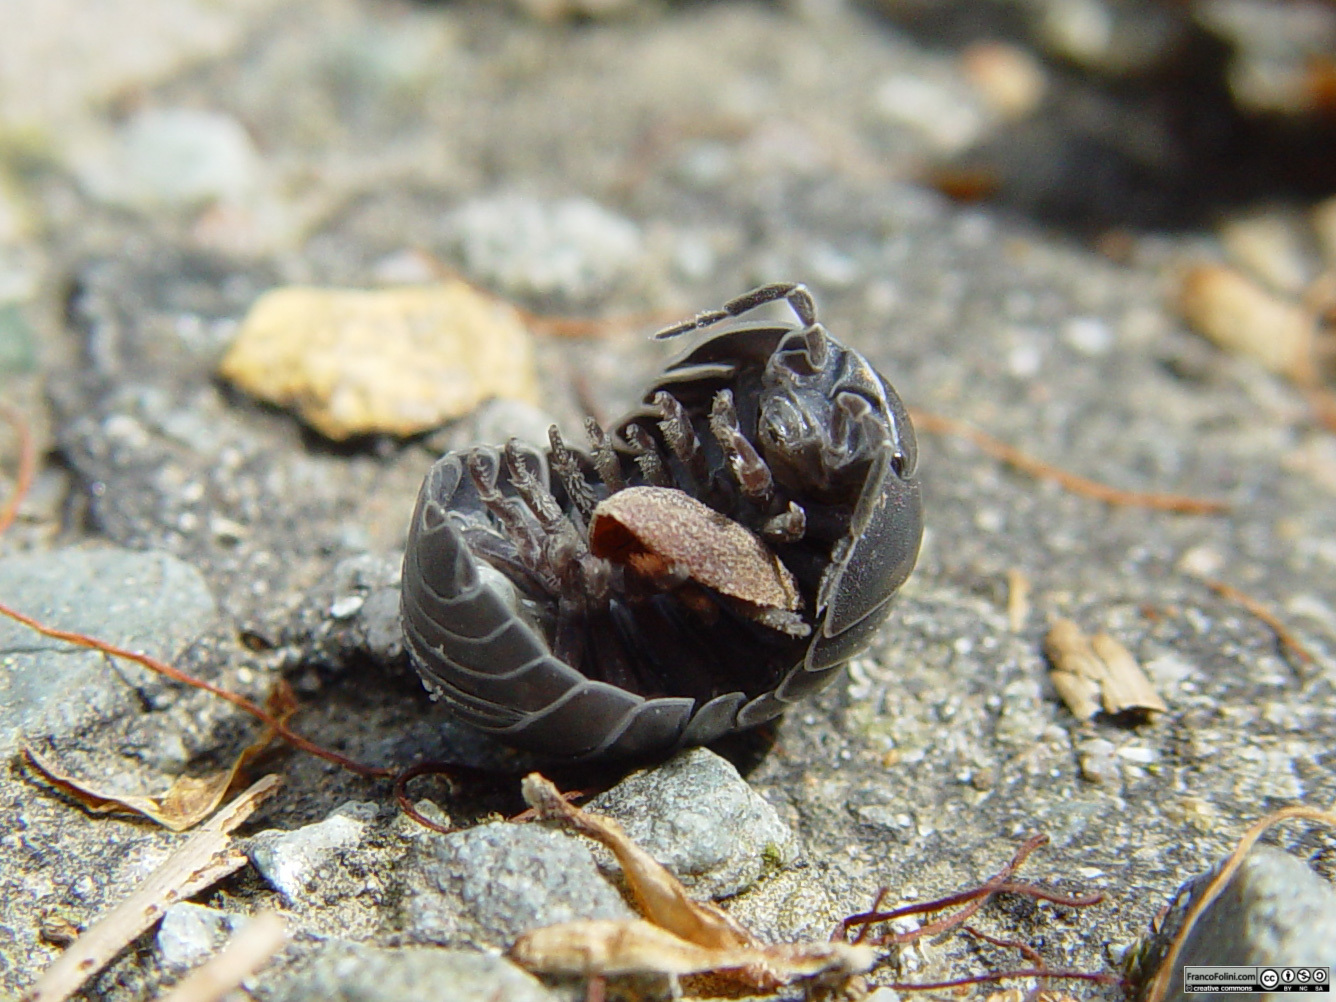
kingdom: Animalia
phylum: Arthropoda
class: Malacostraca
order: Isopoda
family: Armadillidiidae
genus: Armadillidium
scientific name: Armadillidium vulgare
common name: Common pill woodlouse
